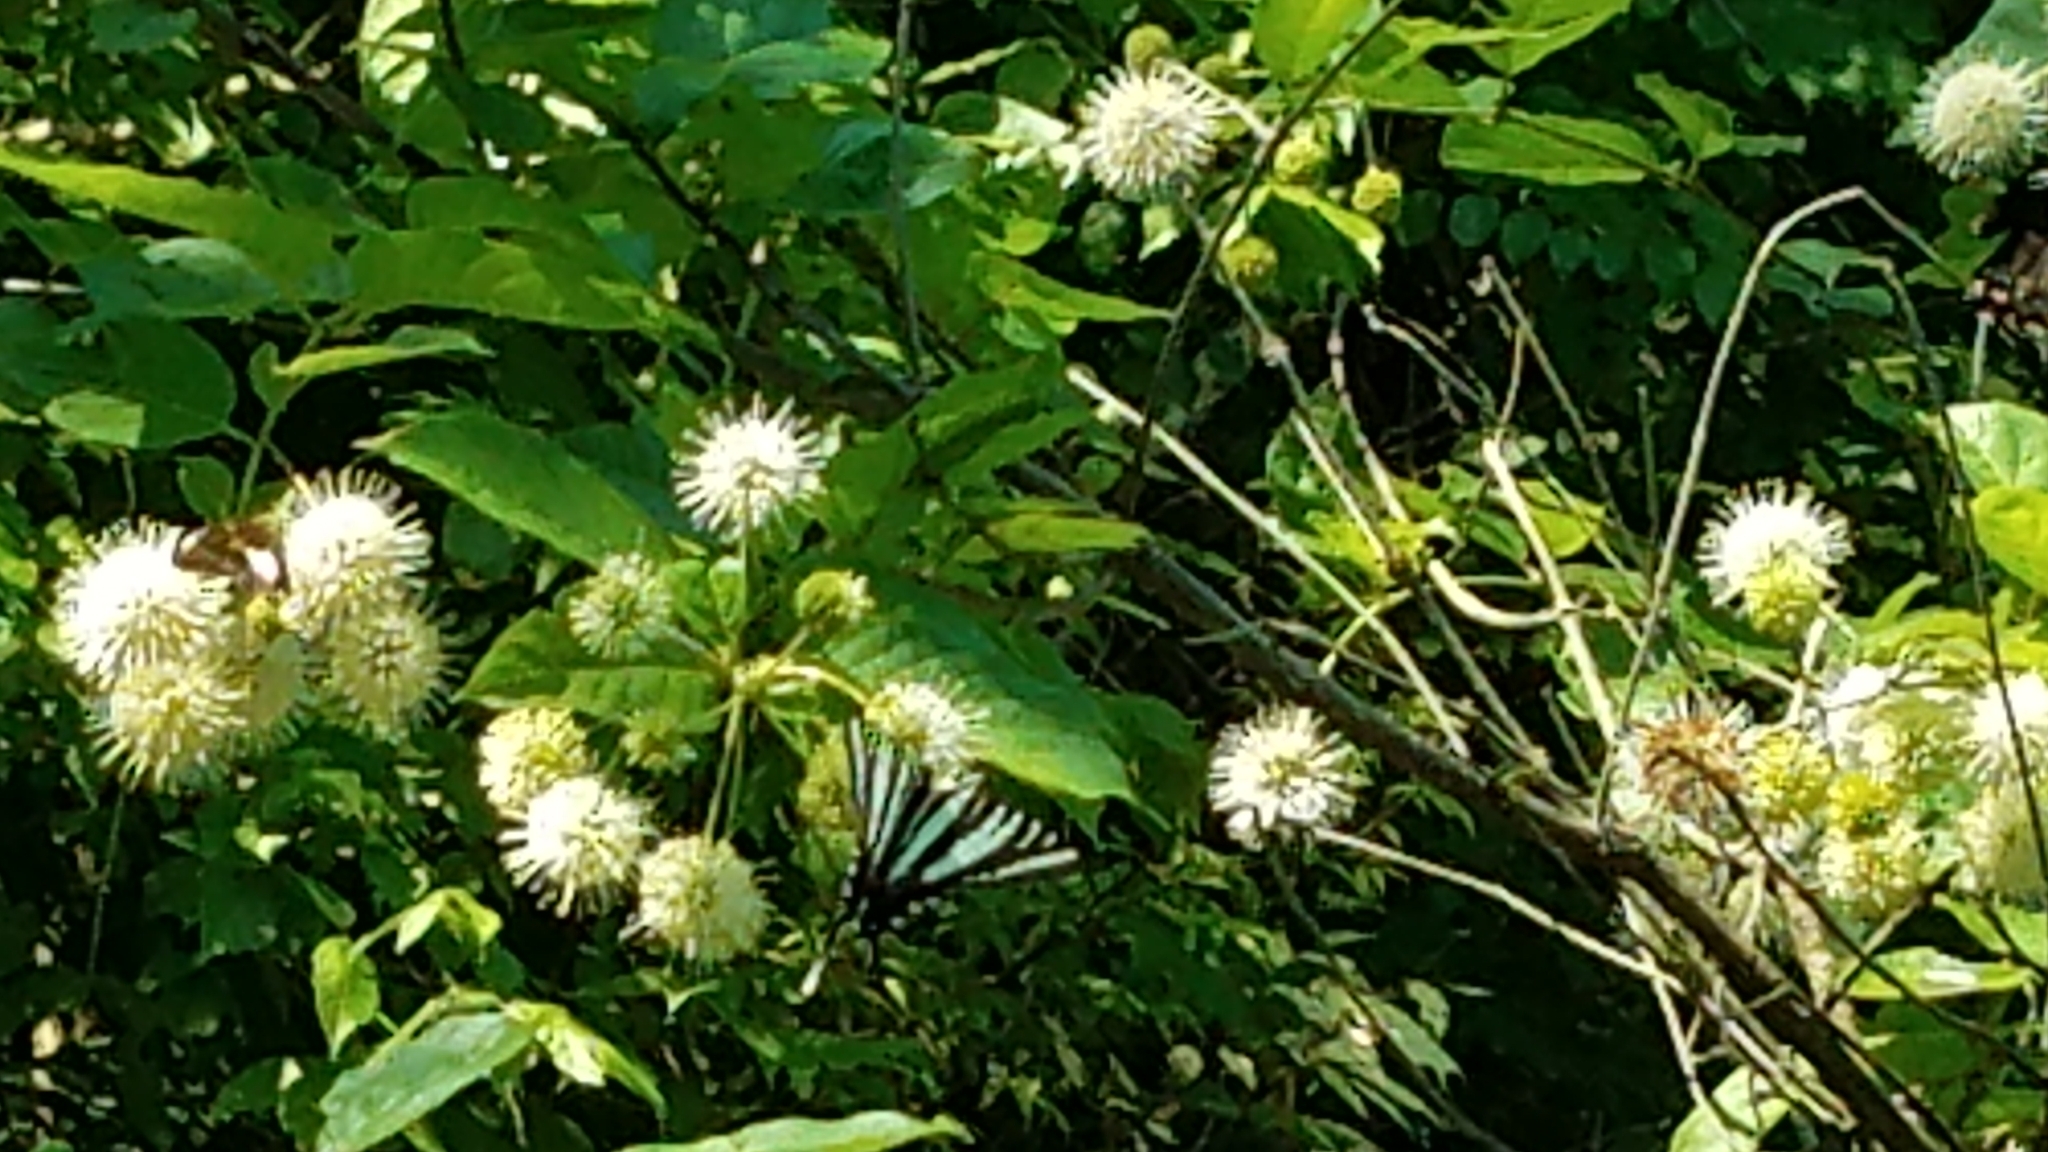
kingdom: Animalia
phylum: Arthropoda
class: Insecta
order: Lepidoptera
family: Papilionidae
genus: Protographium
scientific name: Protographium marcellus
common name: Zebra swallowtail
